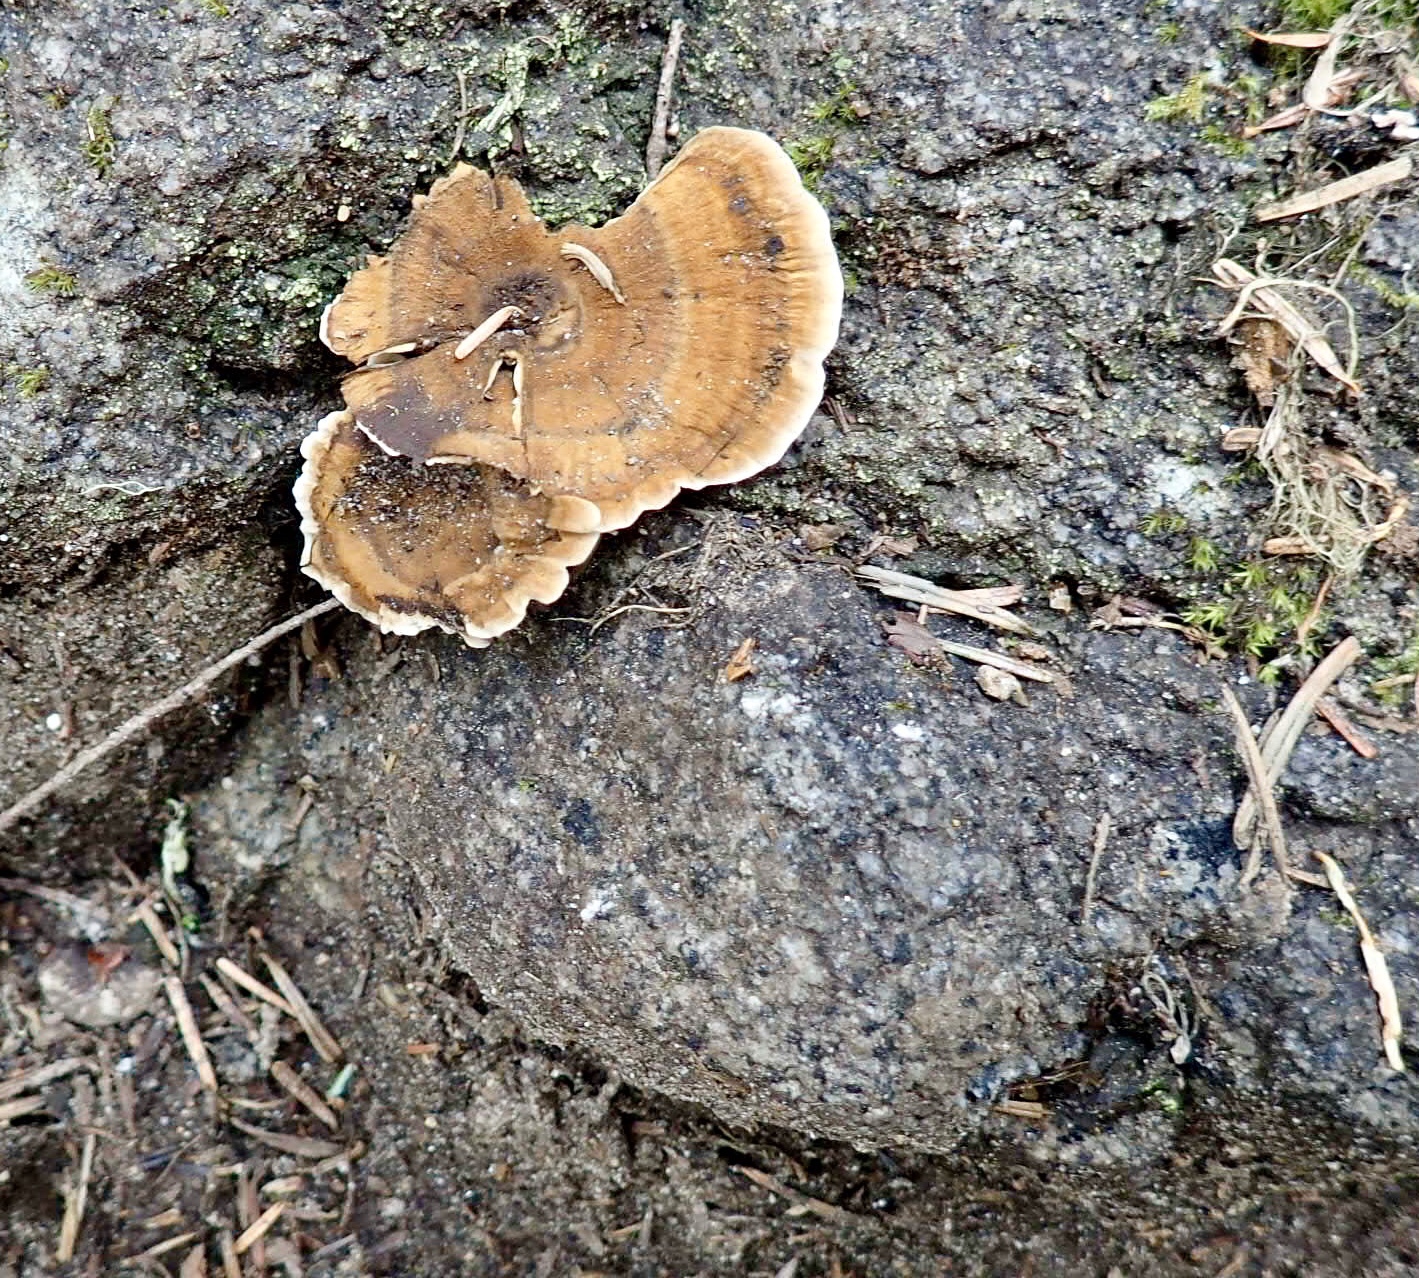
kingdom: Fungi
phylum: Basidiomycota
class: Agaricomycetes
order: Hymenochaetales
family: Hymenochaetaceae
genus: Coltricia
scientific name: Coltricia perennis
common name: Tiger's eye
